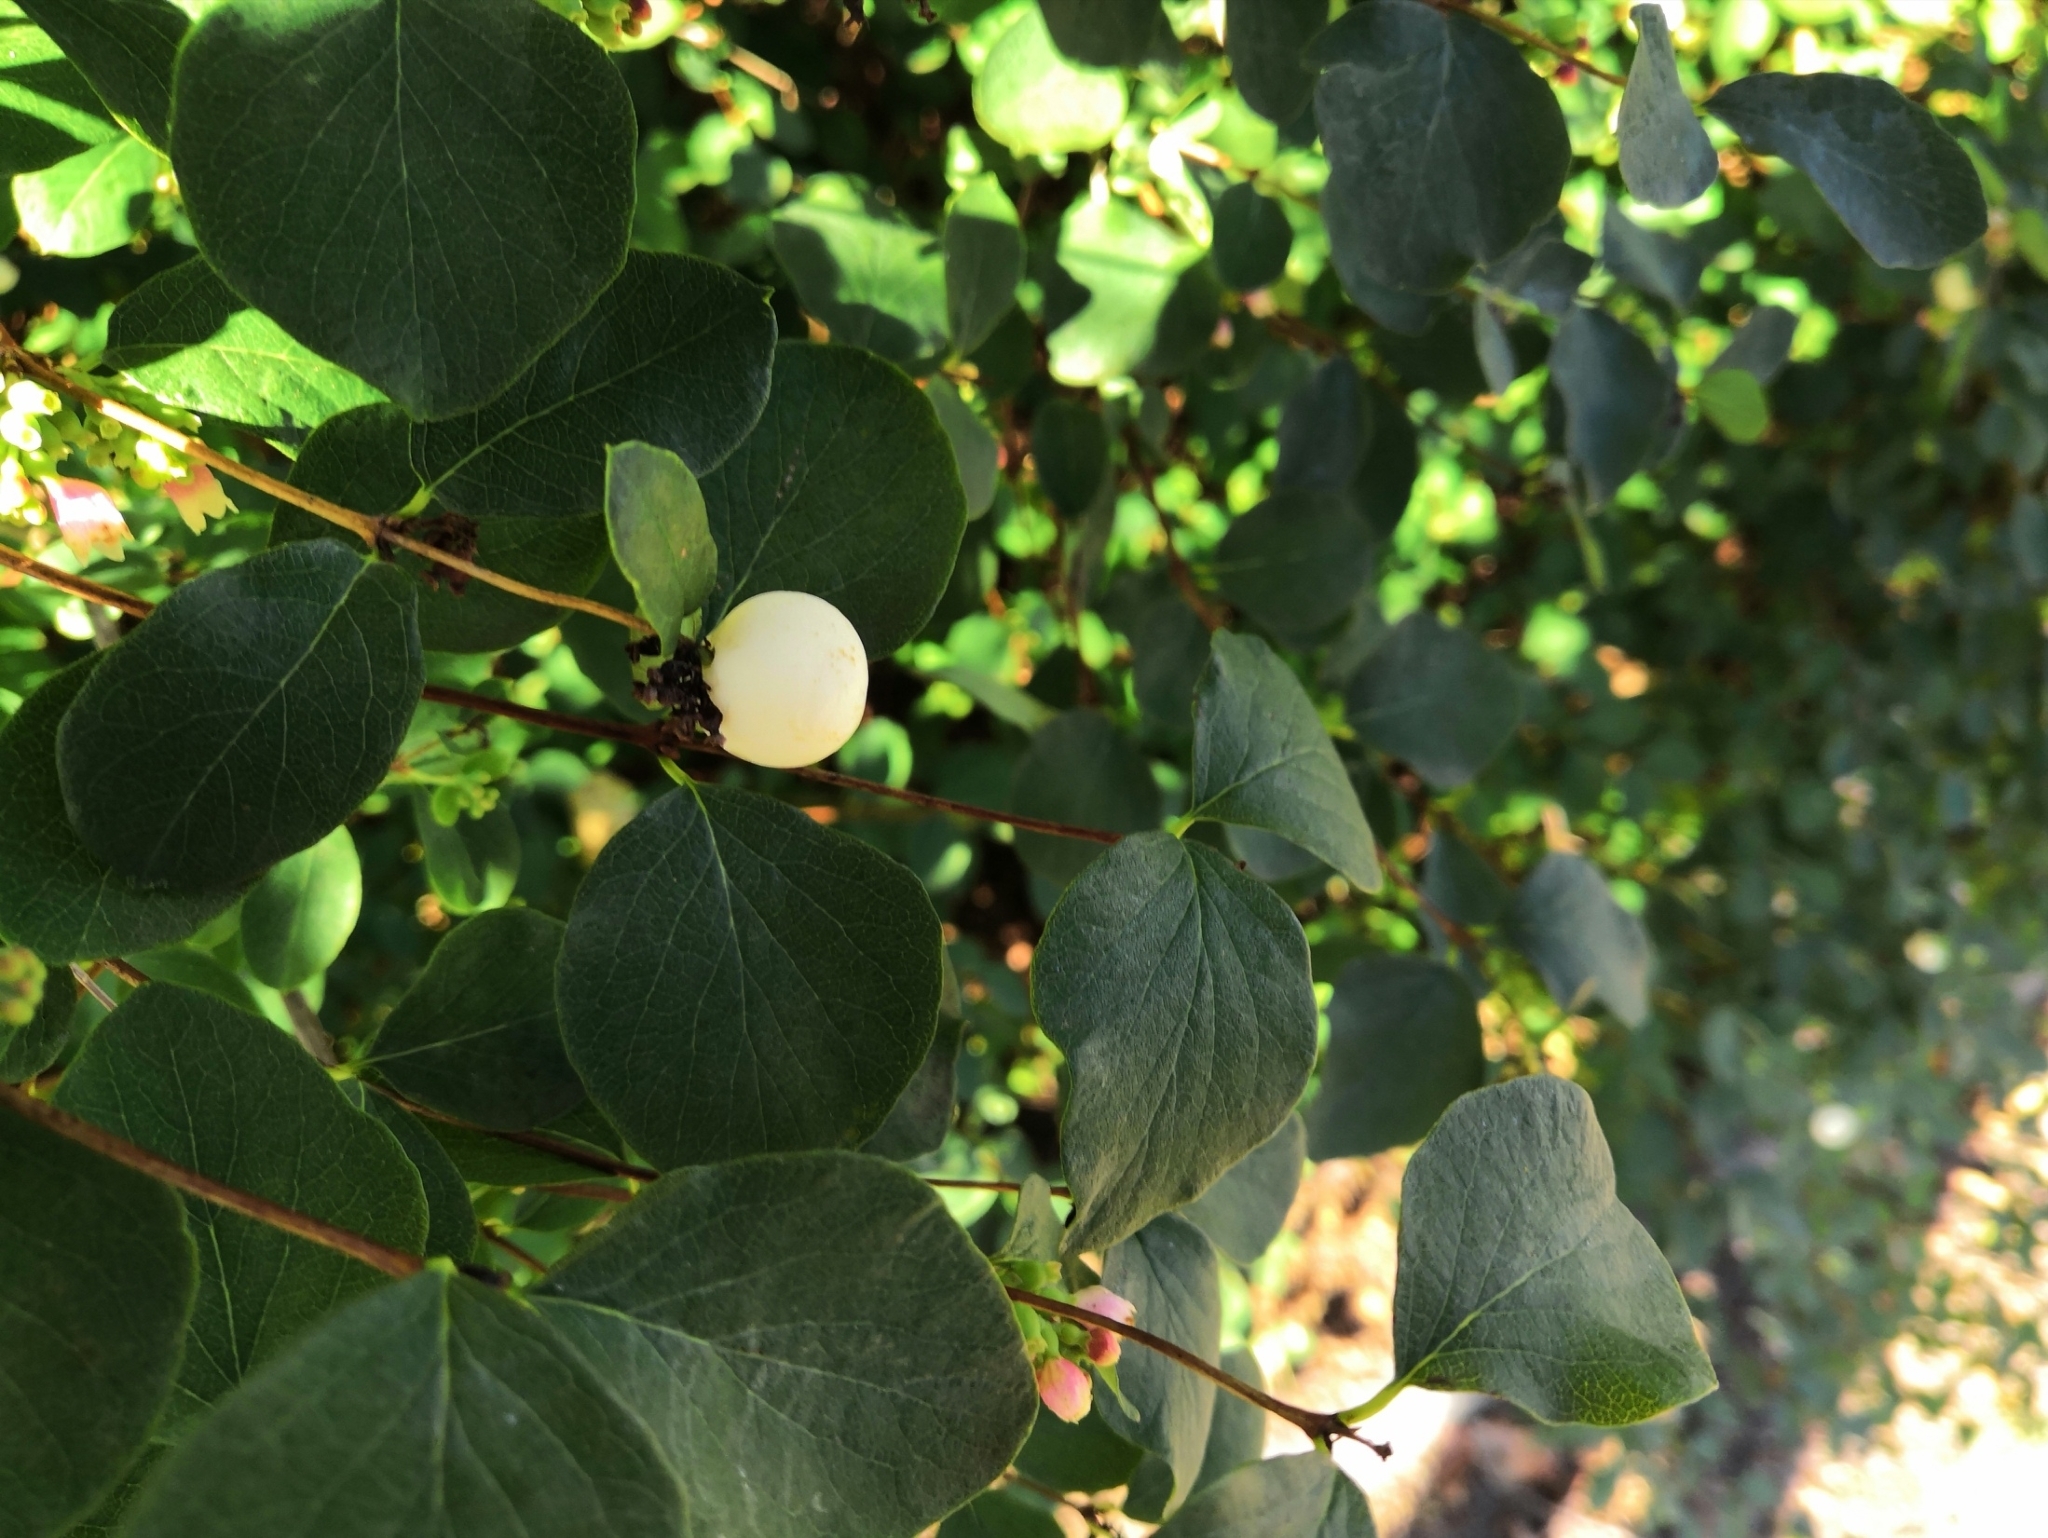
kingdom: Plantae
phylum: Tracheophyta
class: Magnoliopsida
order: Dipsacales
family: Caprifoliaceae
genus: Symphoricarpos
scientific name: Symphoricarpos albus
